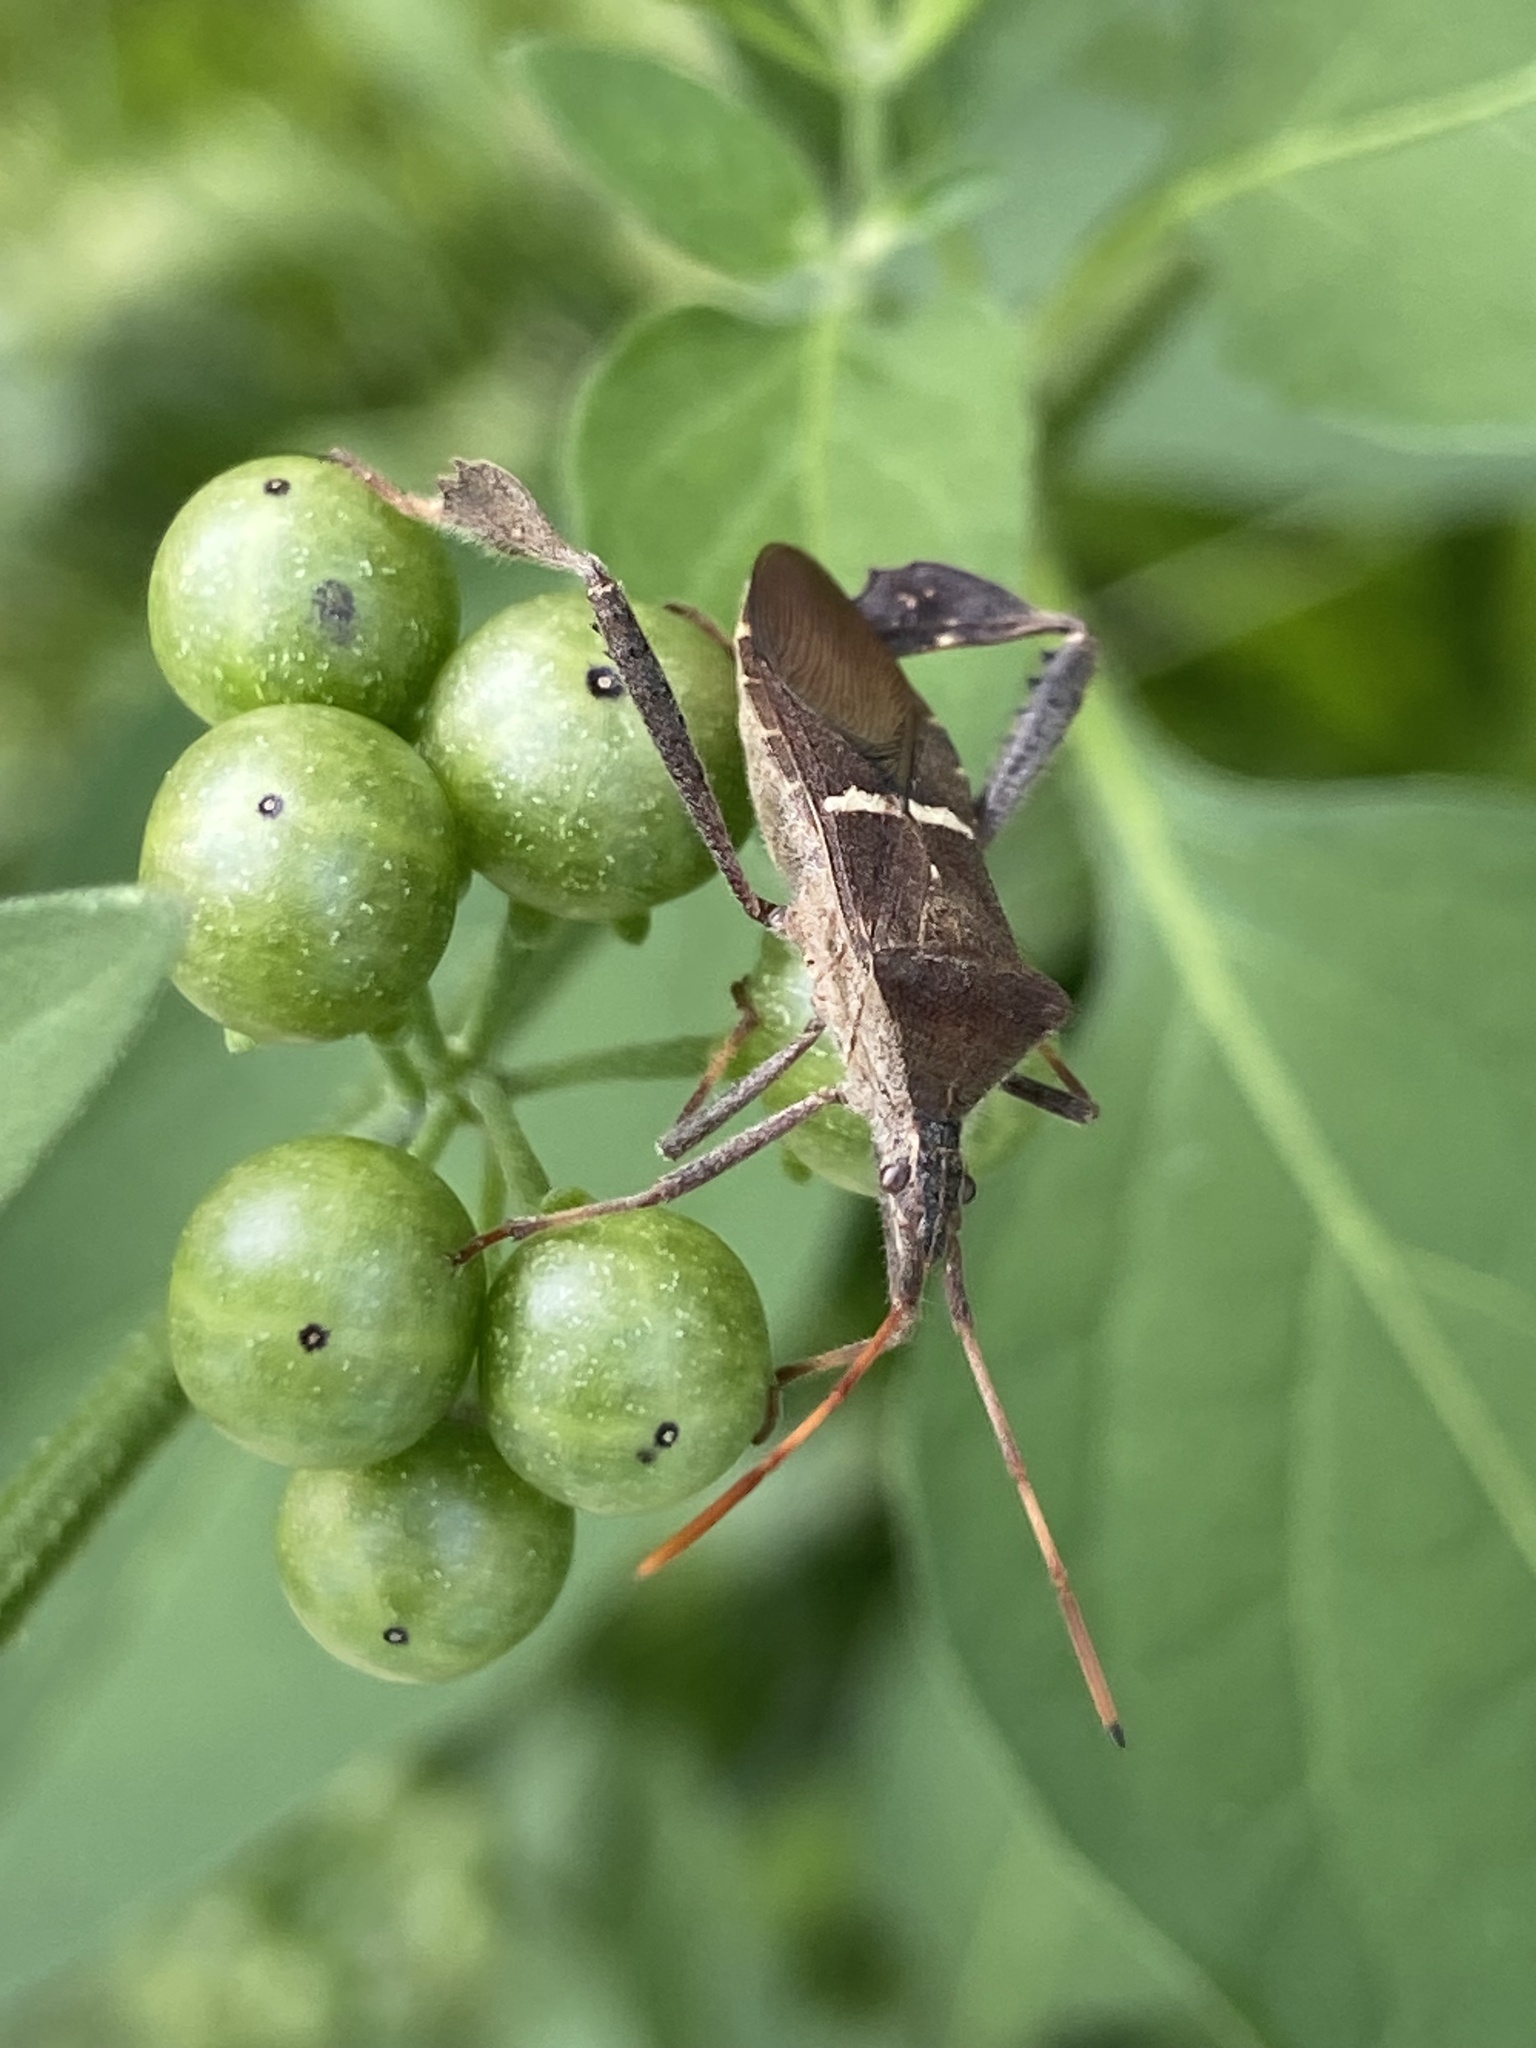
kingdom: Animalia
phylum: Arthropoda
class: Insecta
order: Hemiptera
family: Coreidae
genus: Leptoglossus
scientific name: Leptoglossus phyllopus
